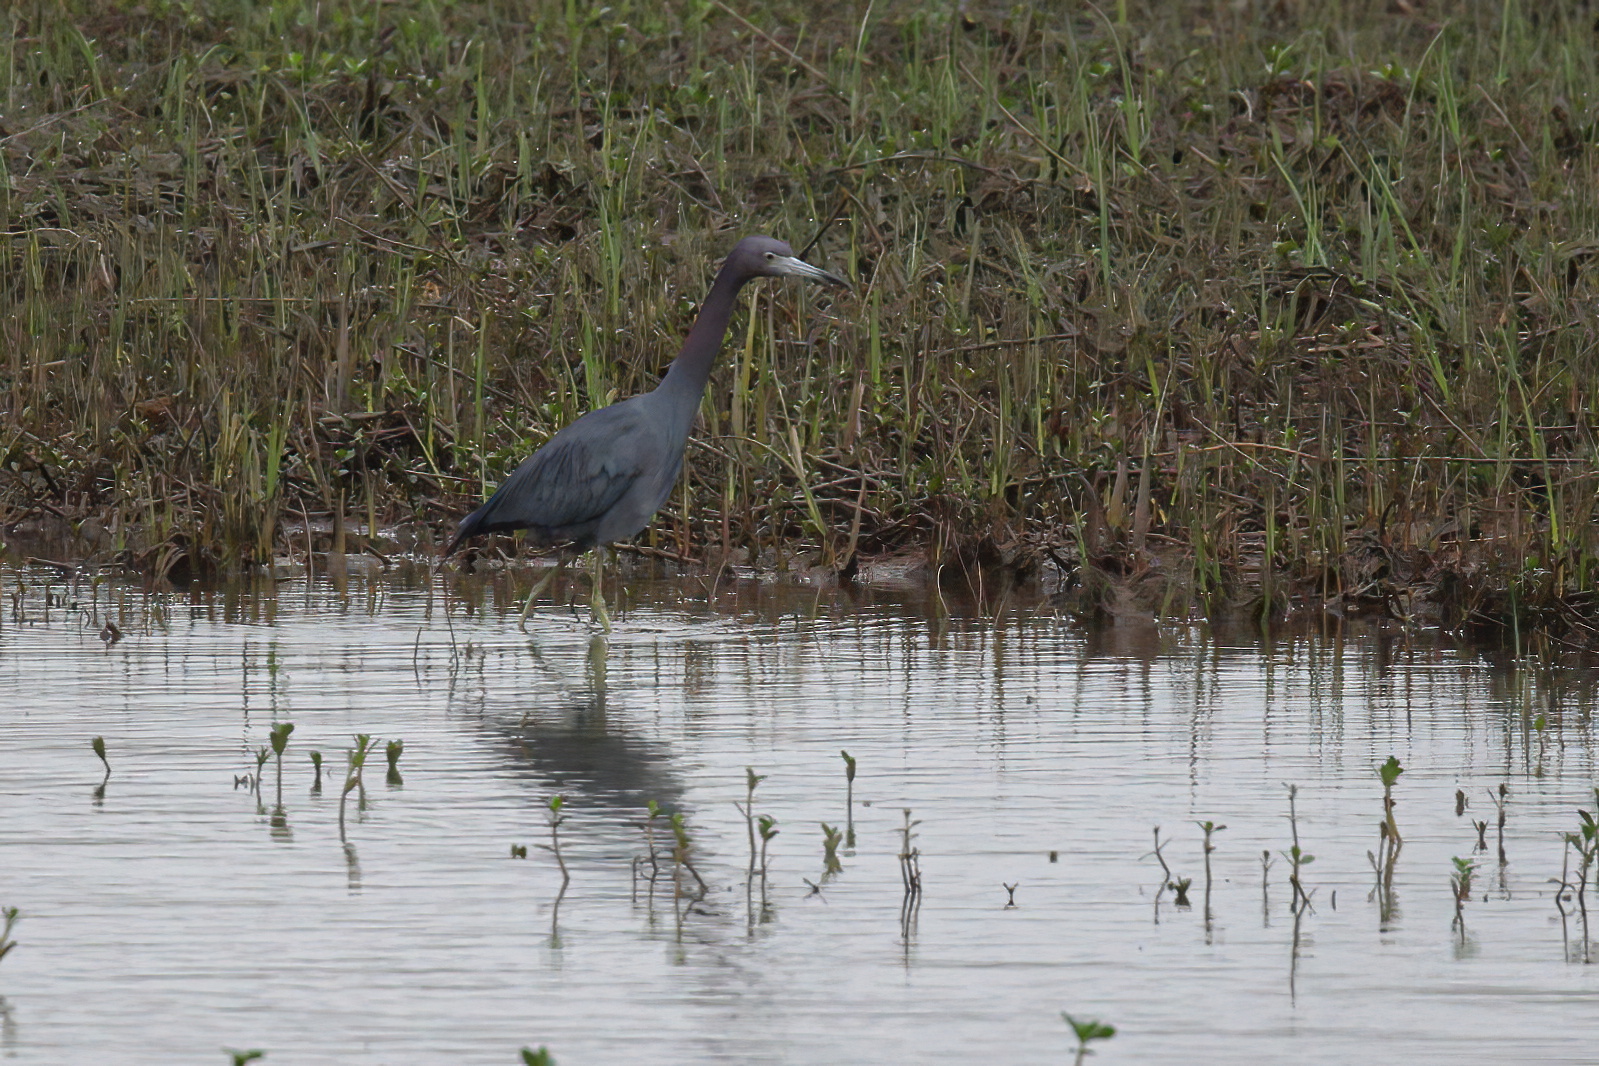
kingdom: Animalia
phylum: Chordata
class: Aves
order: Pelecaniformes
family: Ardeidae
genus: Egretta
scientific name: Egretta caerulea
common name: Little blue heron
